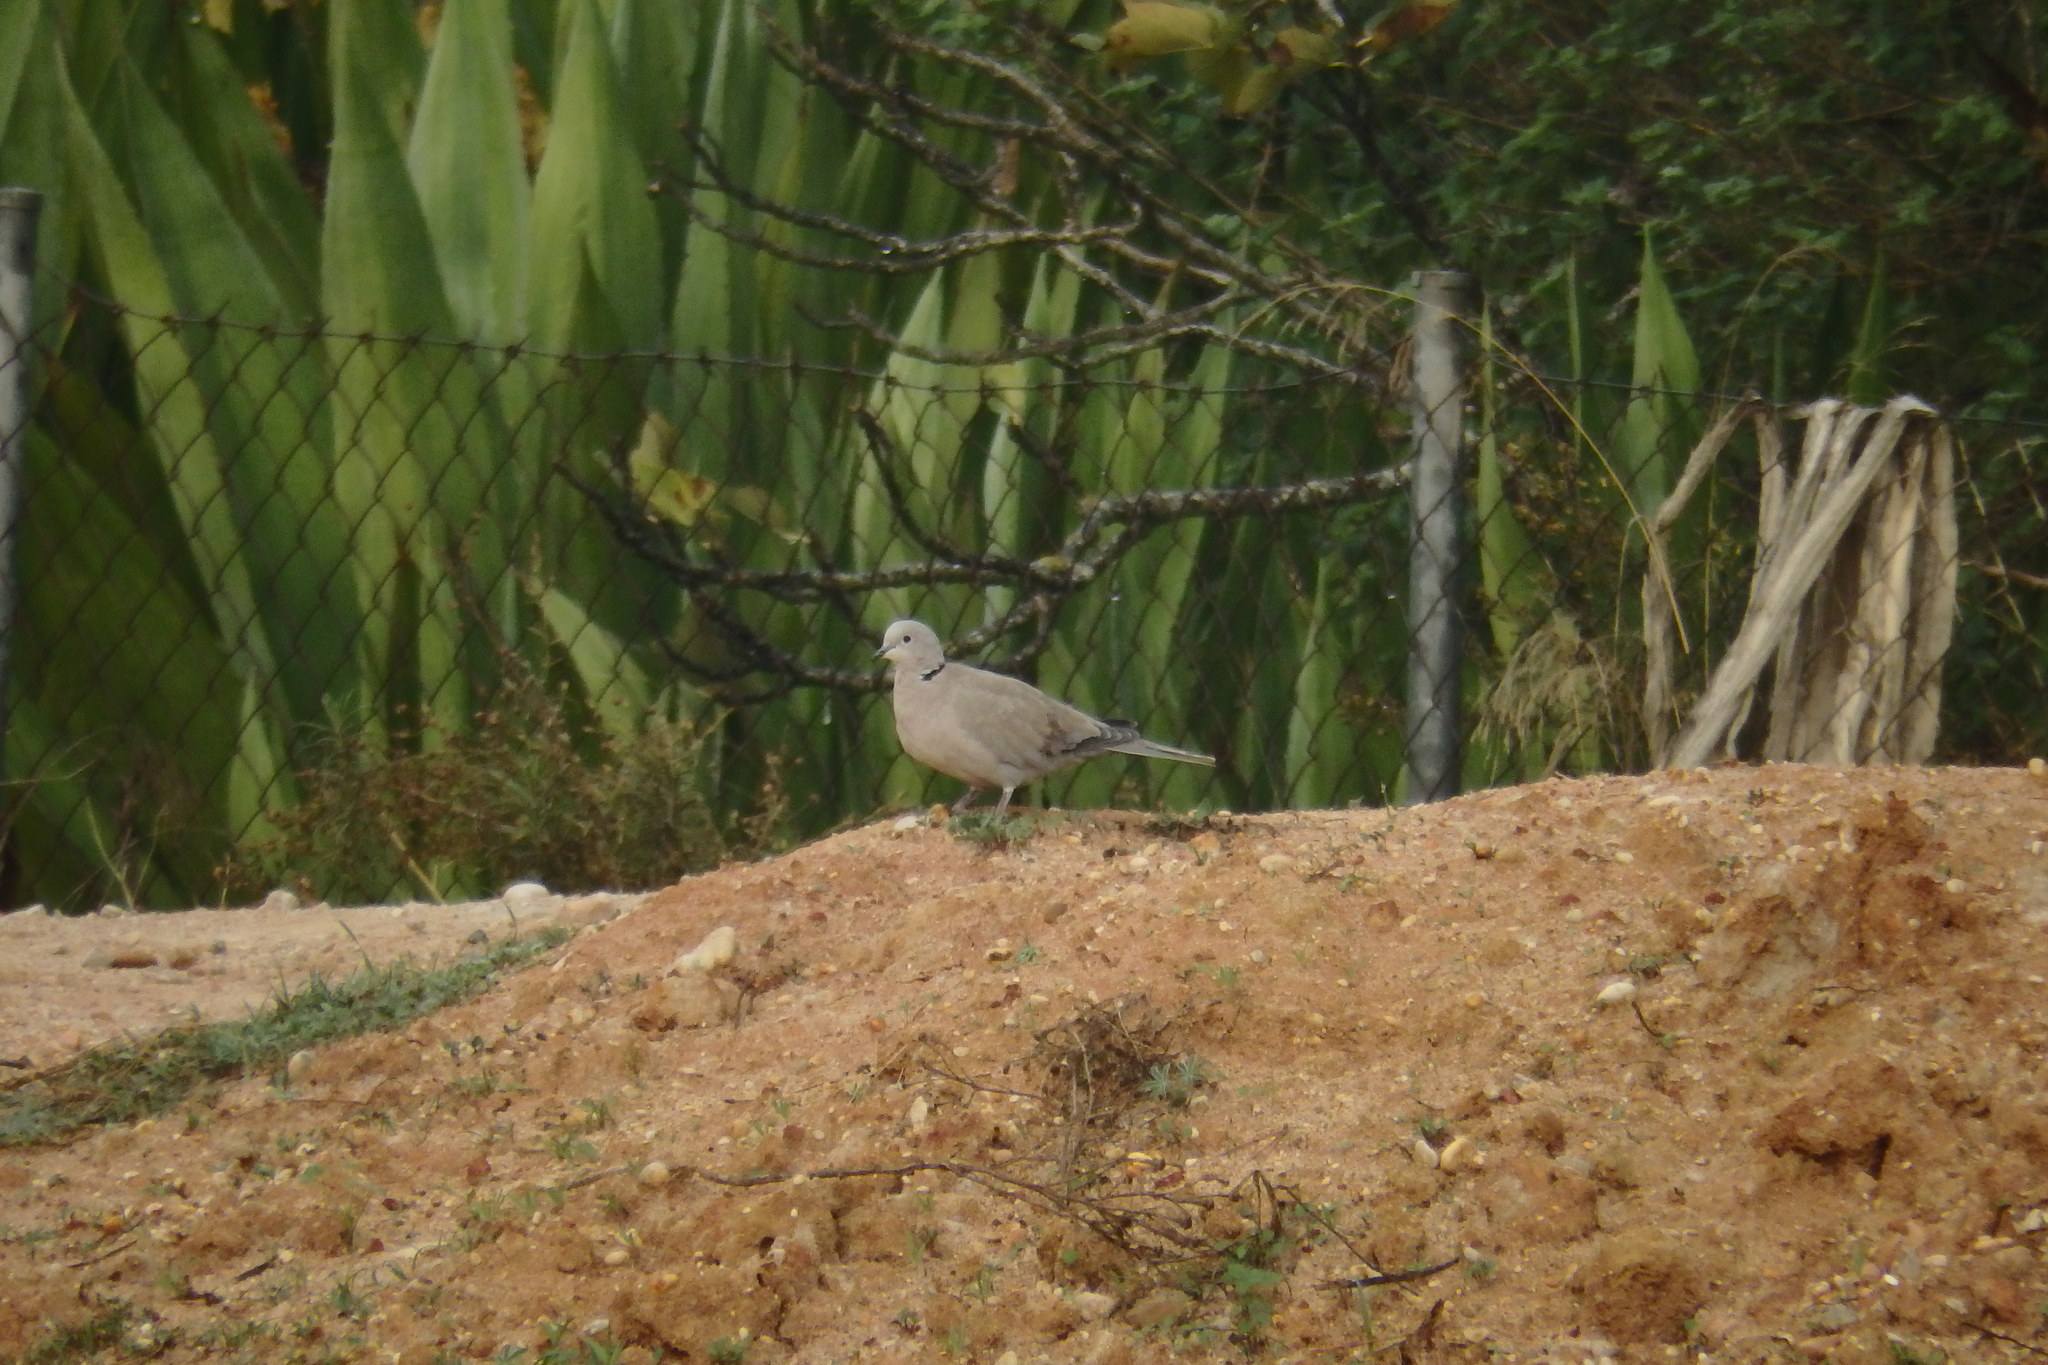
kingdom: Animalia
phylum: Chordata
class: Aves
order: Columbiformes
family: Columbidae
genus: Streptopelia
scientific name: Streptopelia decaocto
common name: Eurasian collared dove
